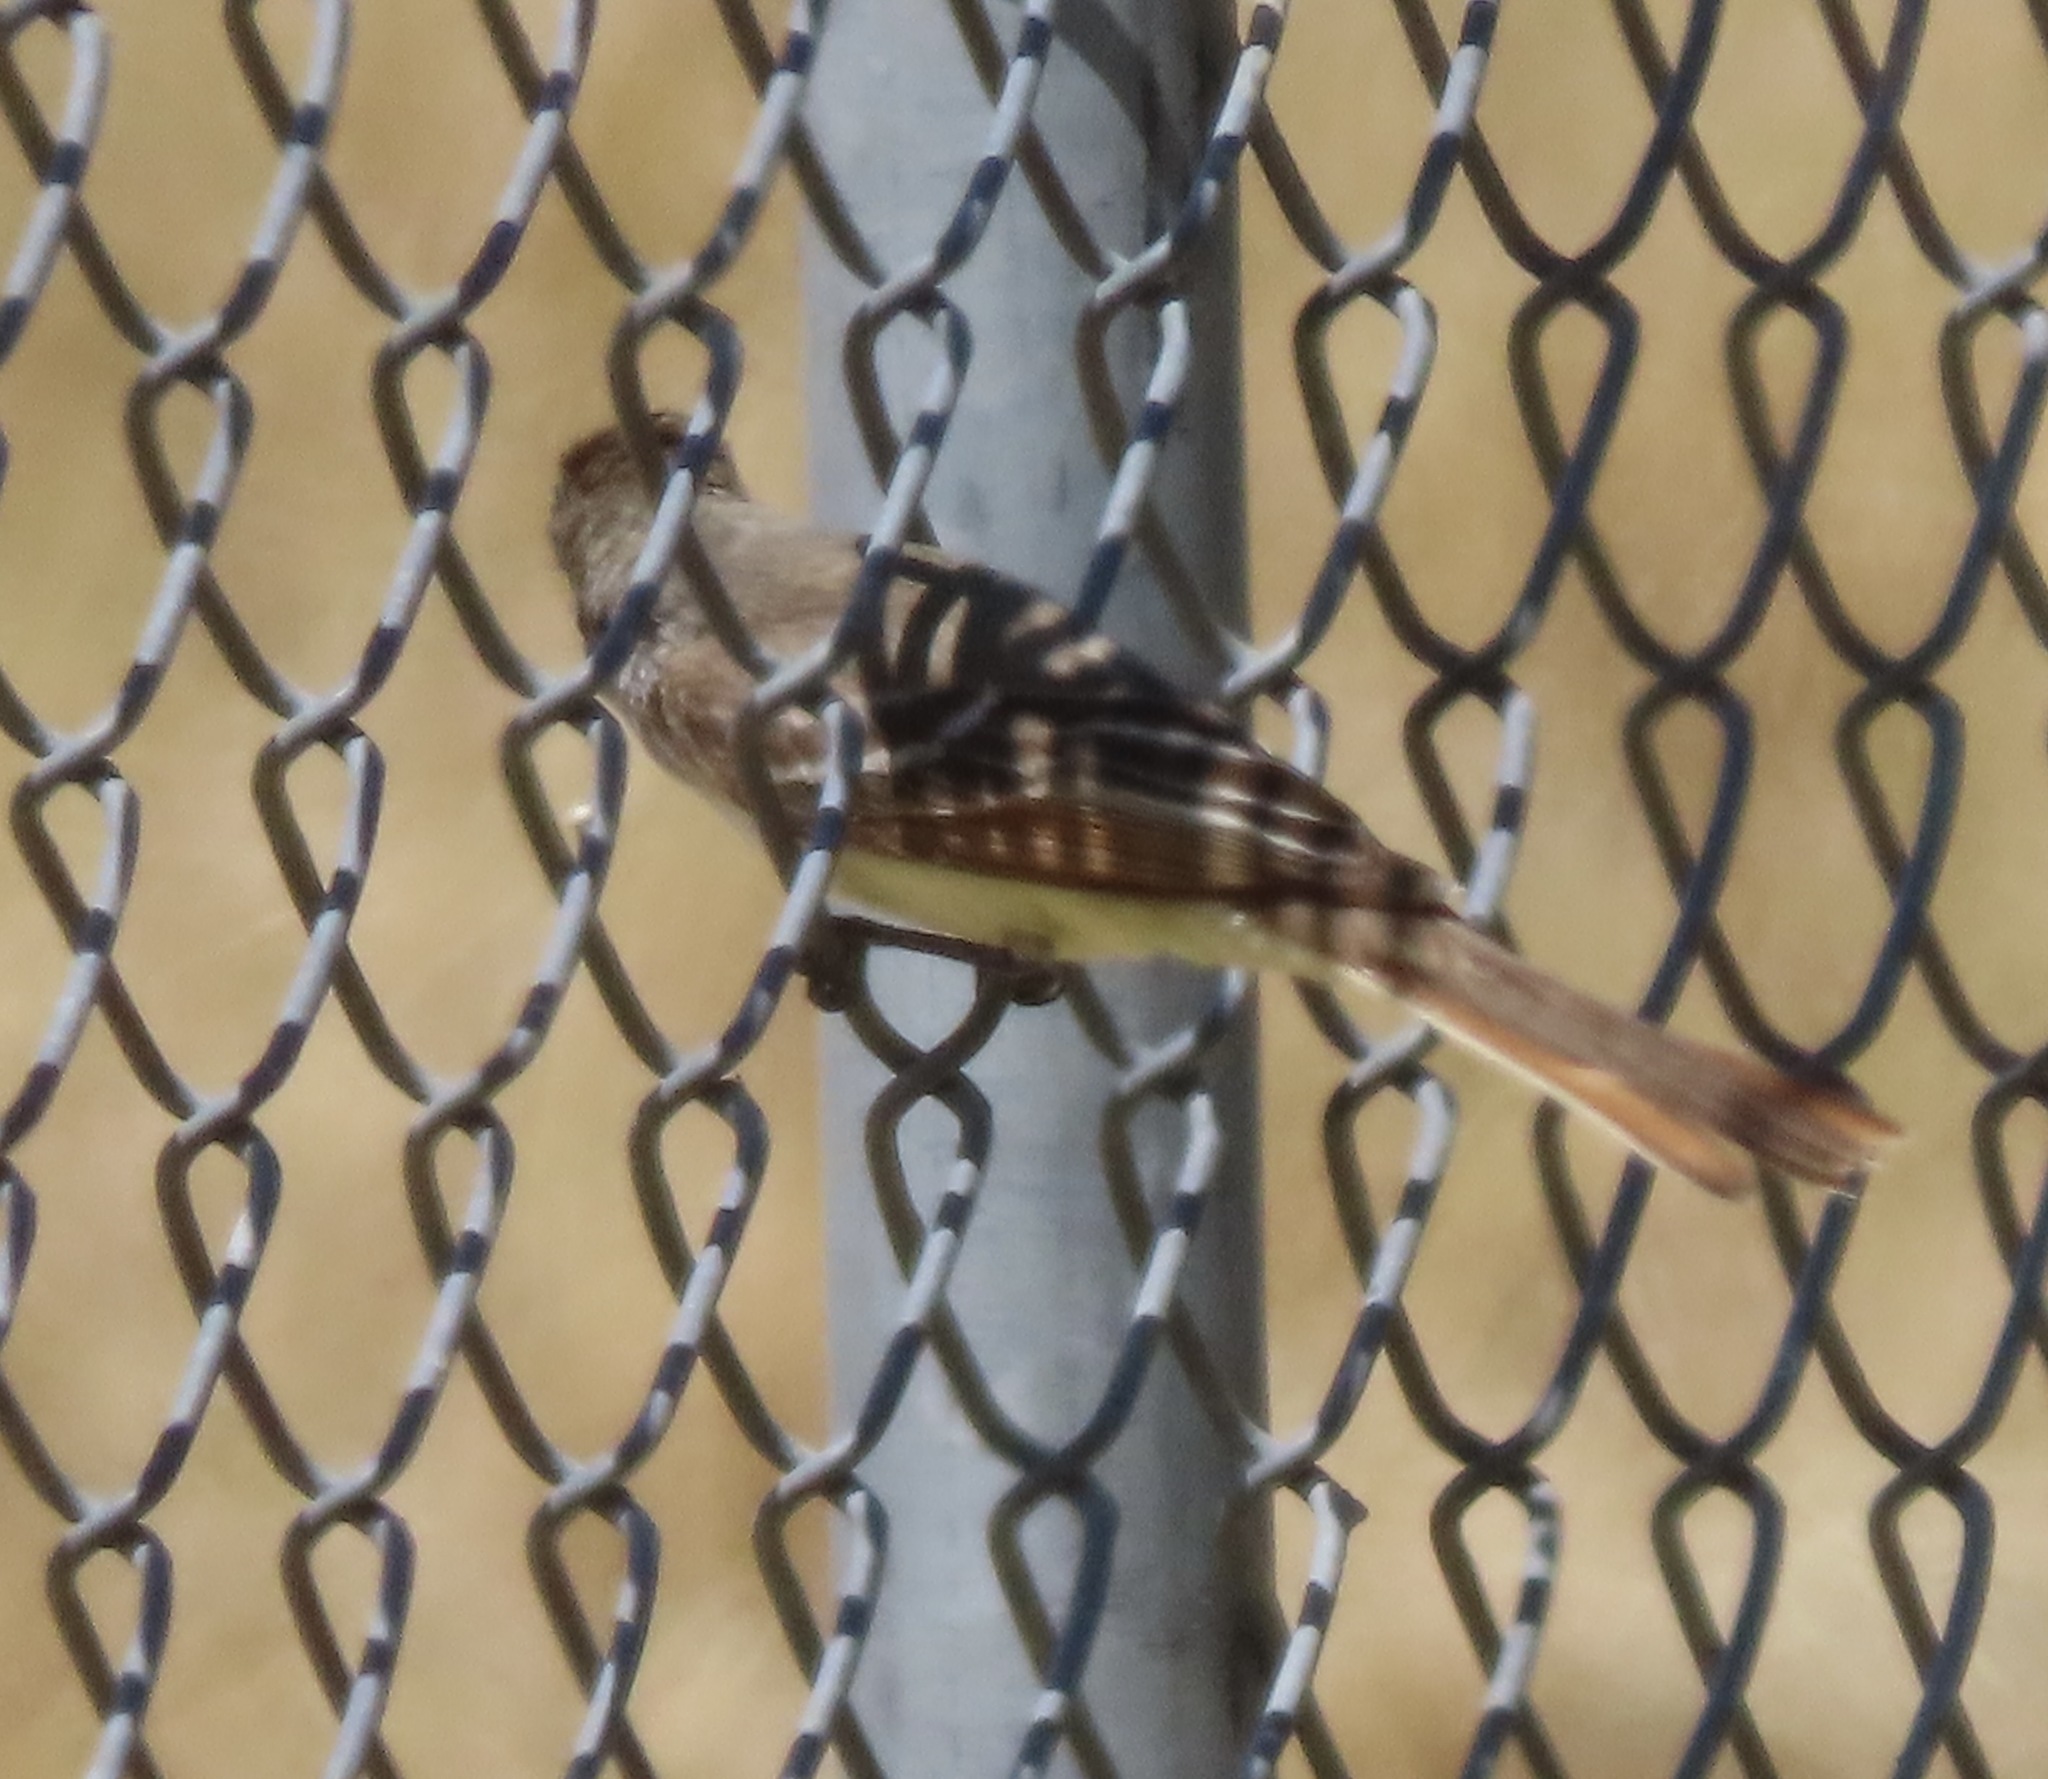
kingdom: Animalia
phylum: Chordata
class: Aves
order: Passeriformes
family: Tyrannidae
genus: Tyrannus
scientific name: Tyrannus verticalis
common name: Western kingbird
